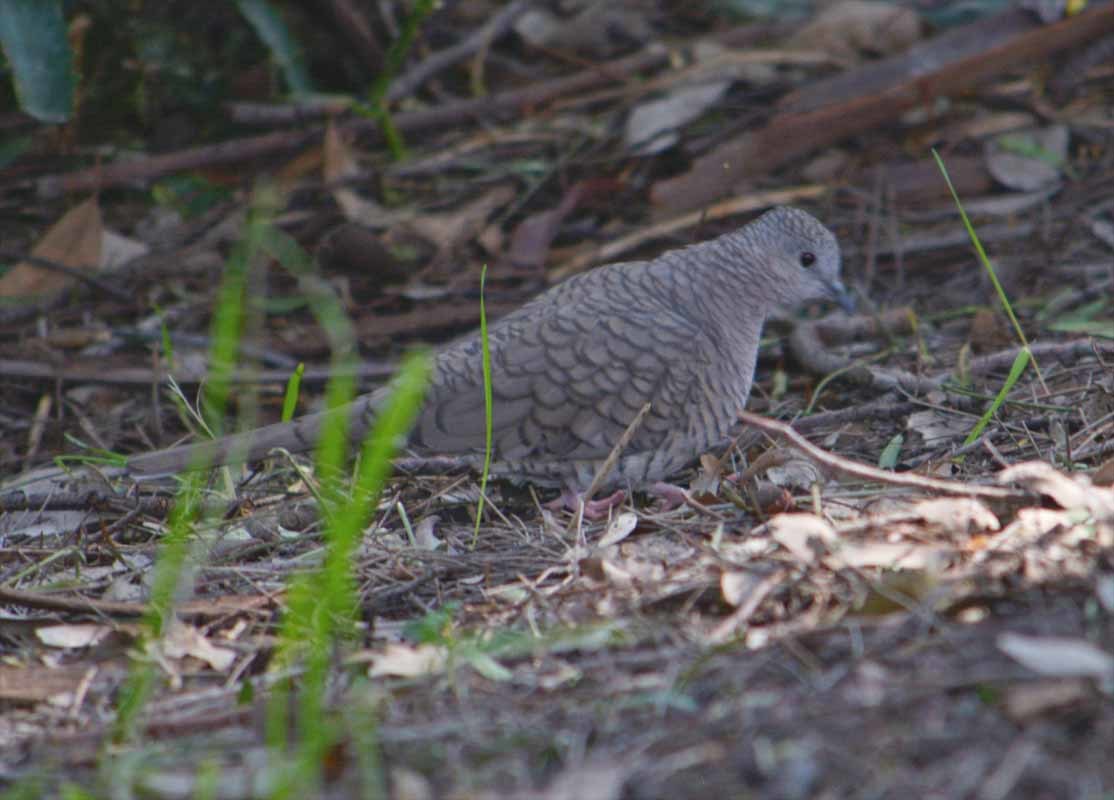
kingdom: Animalia
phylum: Chordata
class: Aves
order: Columbiformes
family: Columbidae
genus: Columbina
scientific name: Columbina inca
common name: Inca dove
